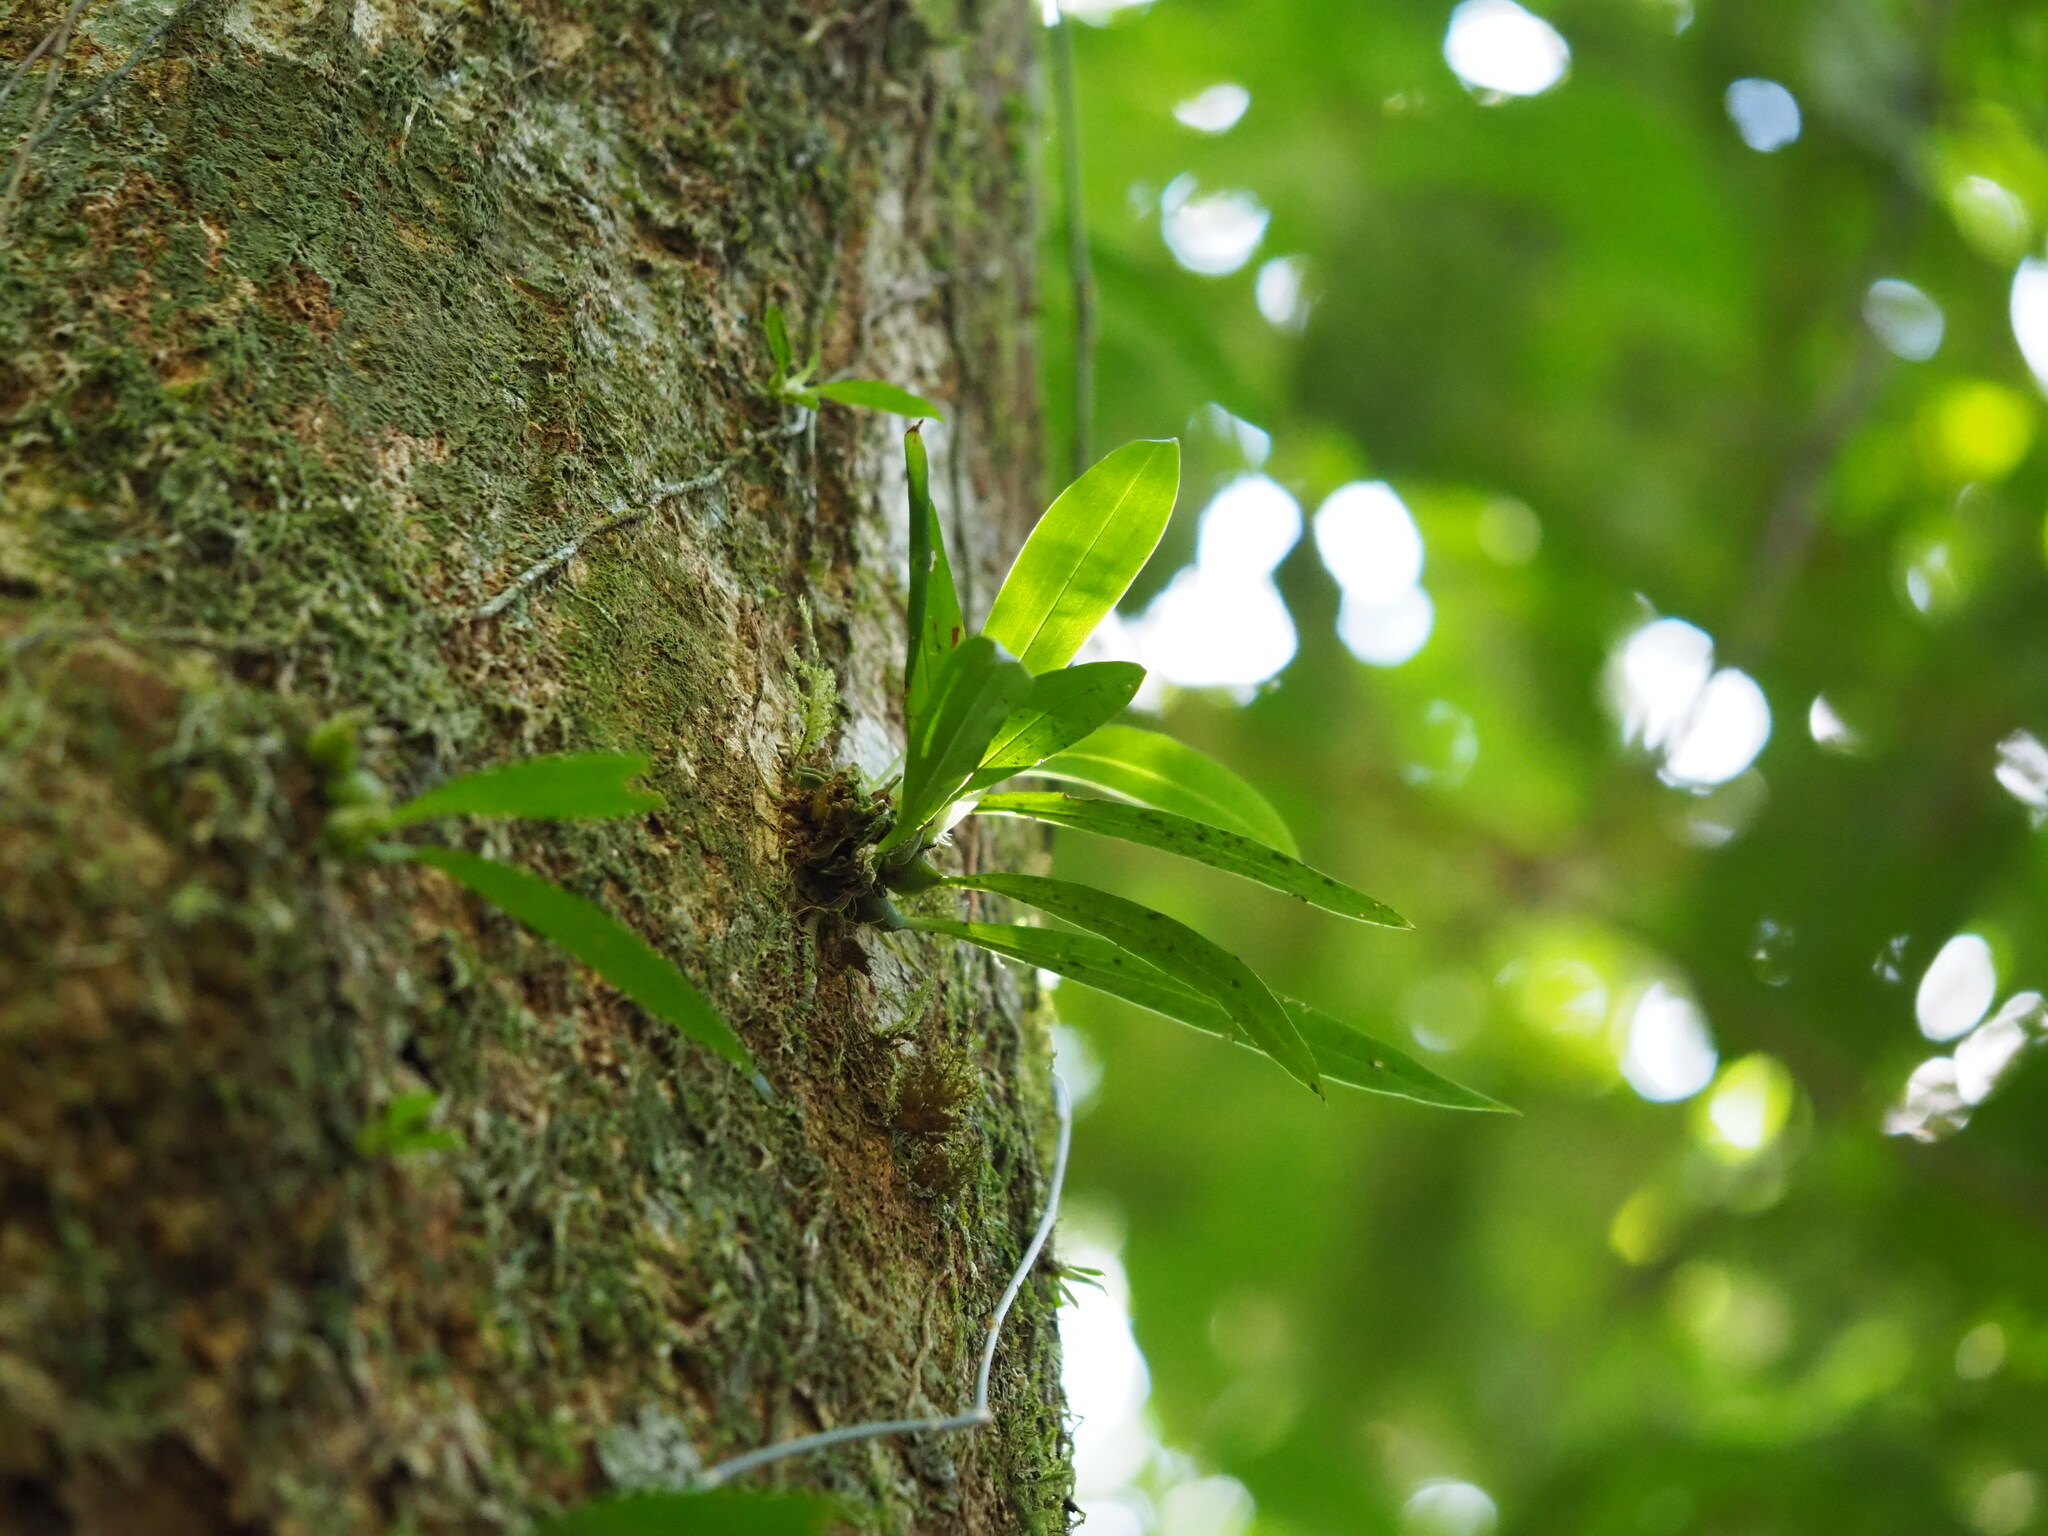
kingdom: Plantae
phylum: Tracheophyta
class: Liliopsida
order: Asparagales
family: Orchidaceae
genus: Liparis
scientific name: Liparis bootanensis
